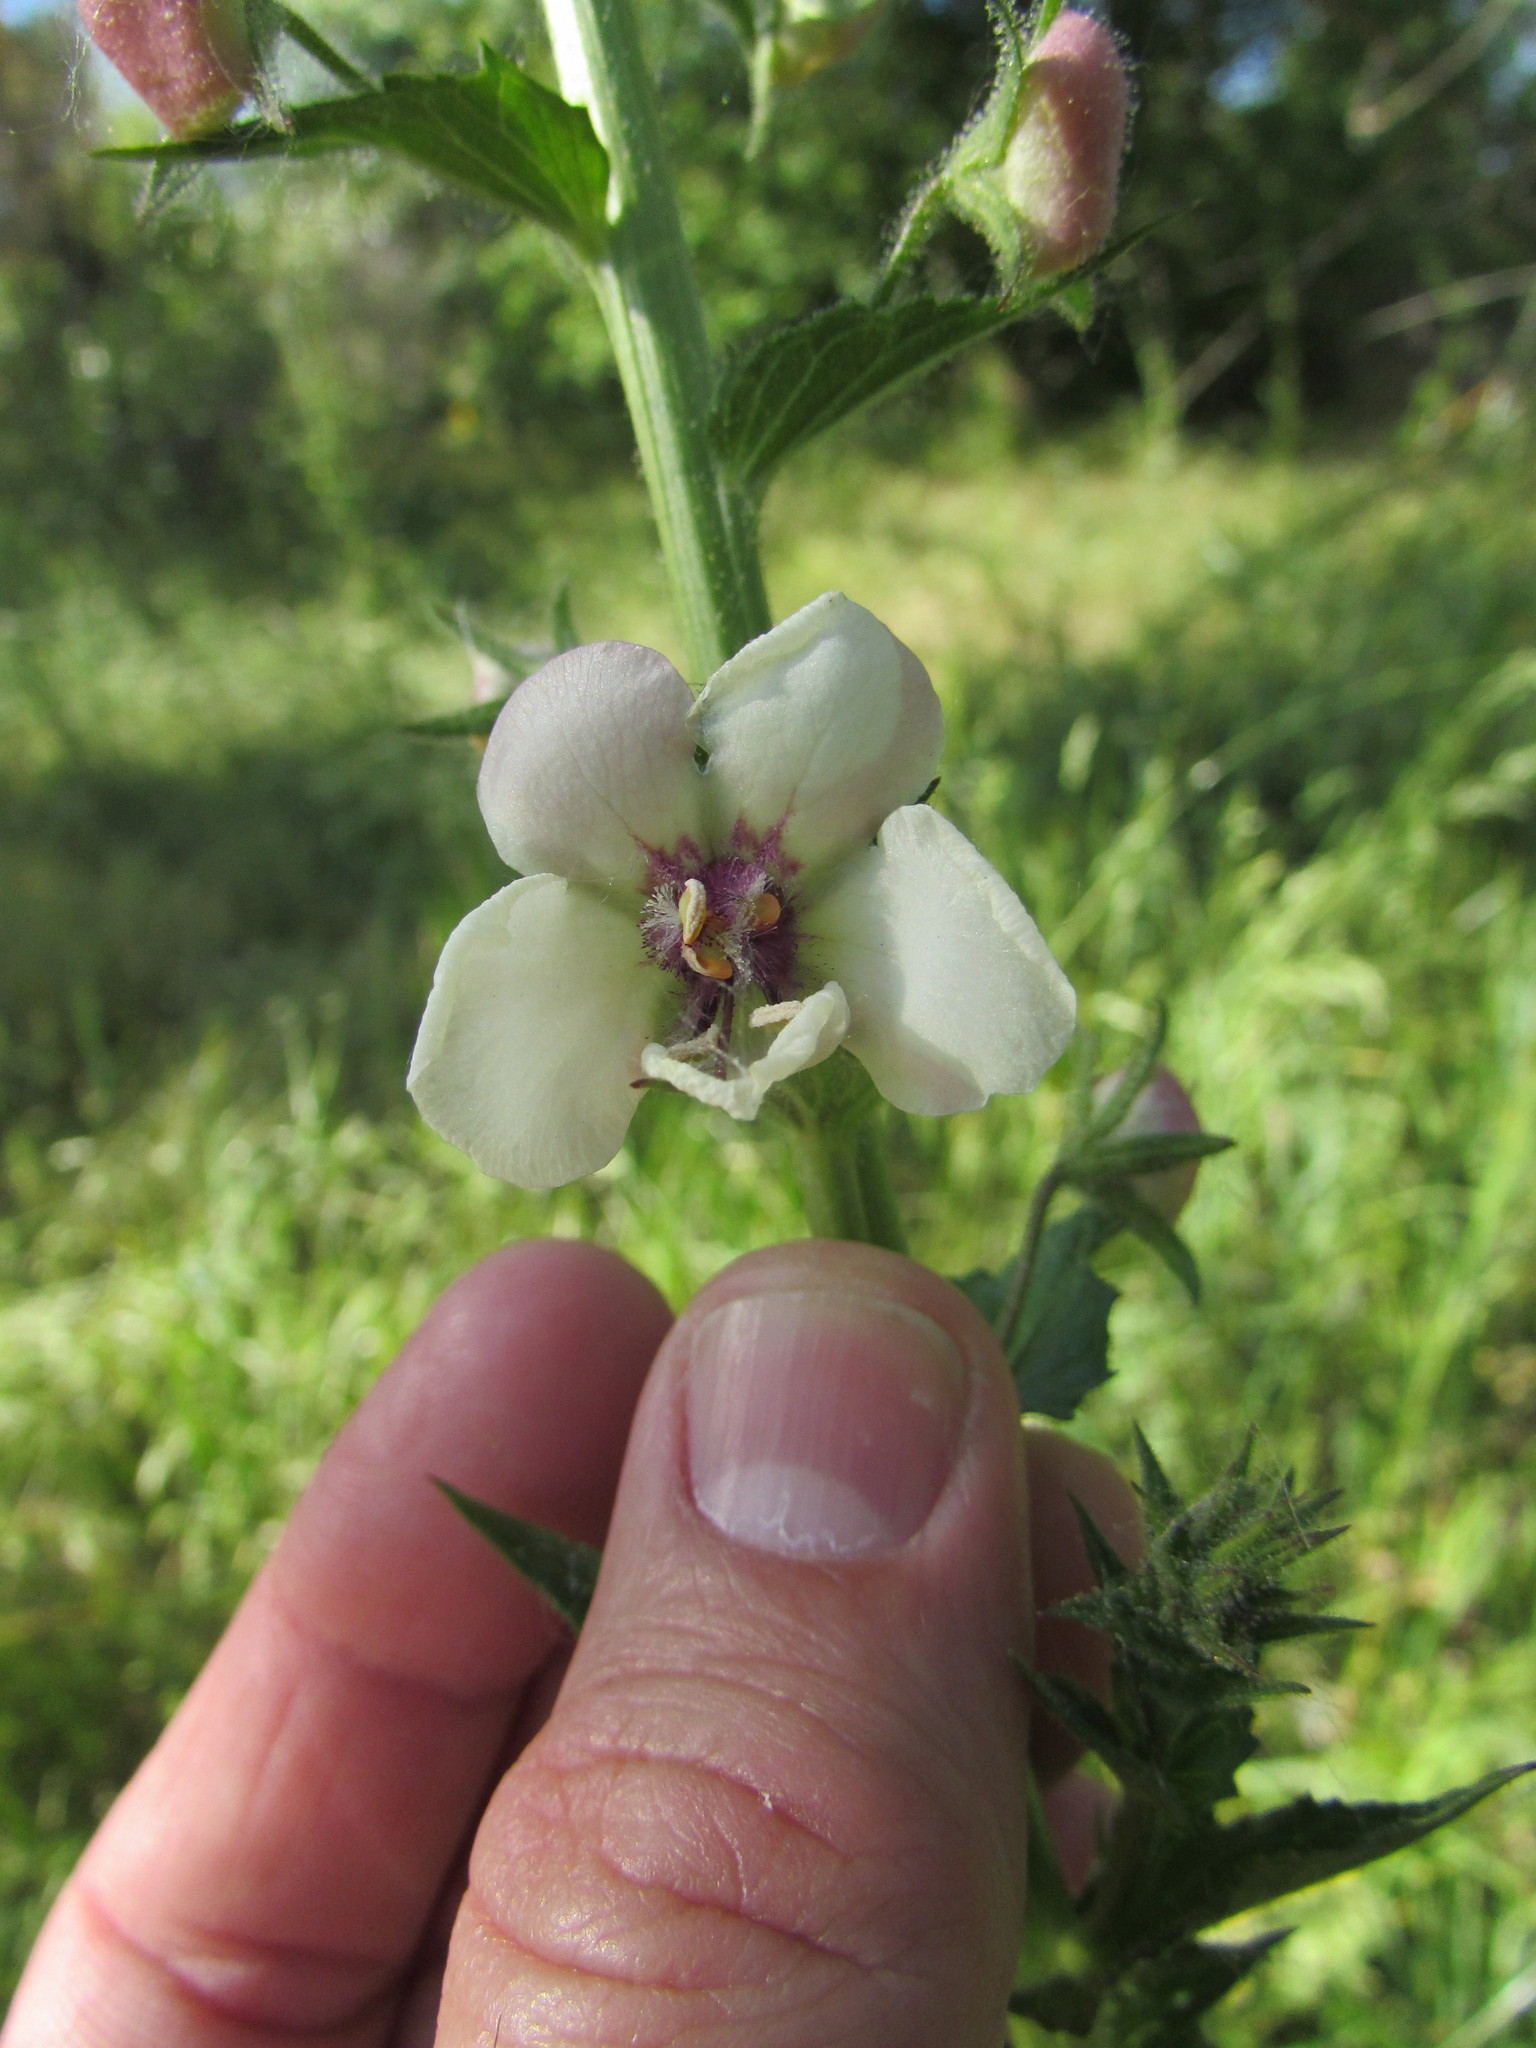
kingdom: Plantae
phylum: Tracheophyta
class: Magnoliopsida
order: Lamiales
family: Scrophulariaceae
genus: Verbascum
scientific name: Verbascum blattaria
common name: Moth mullein
